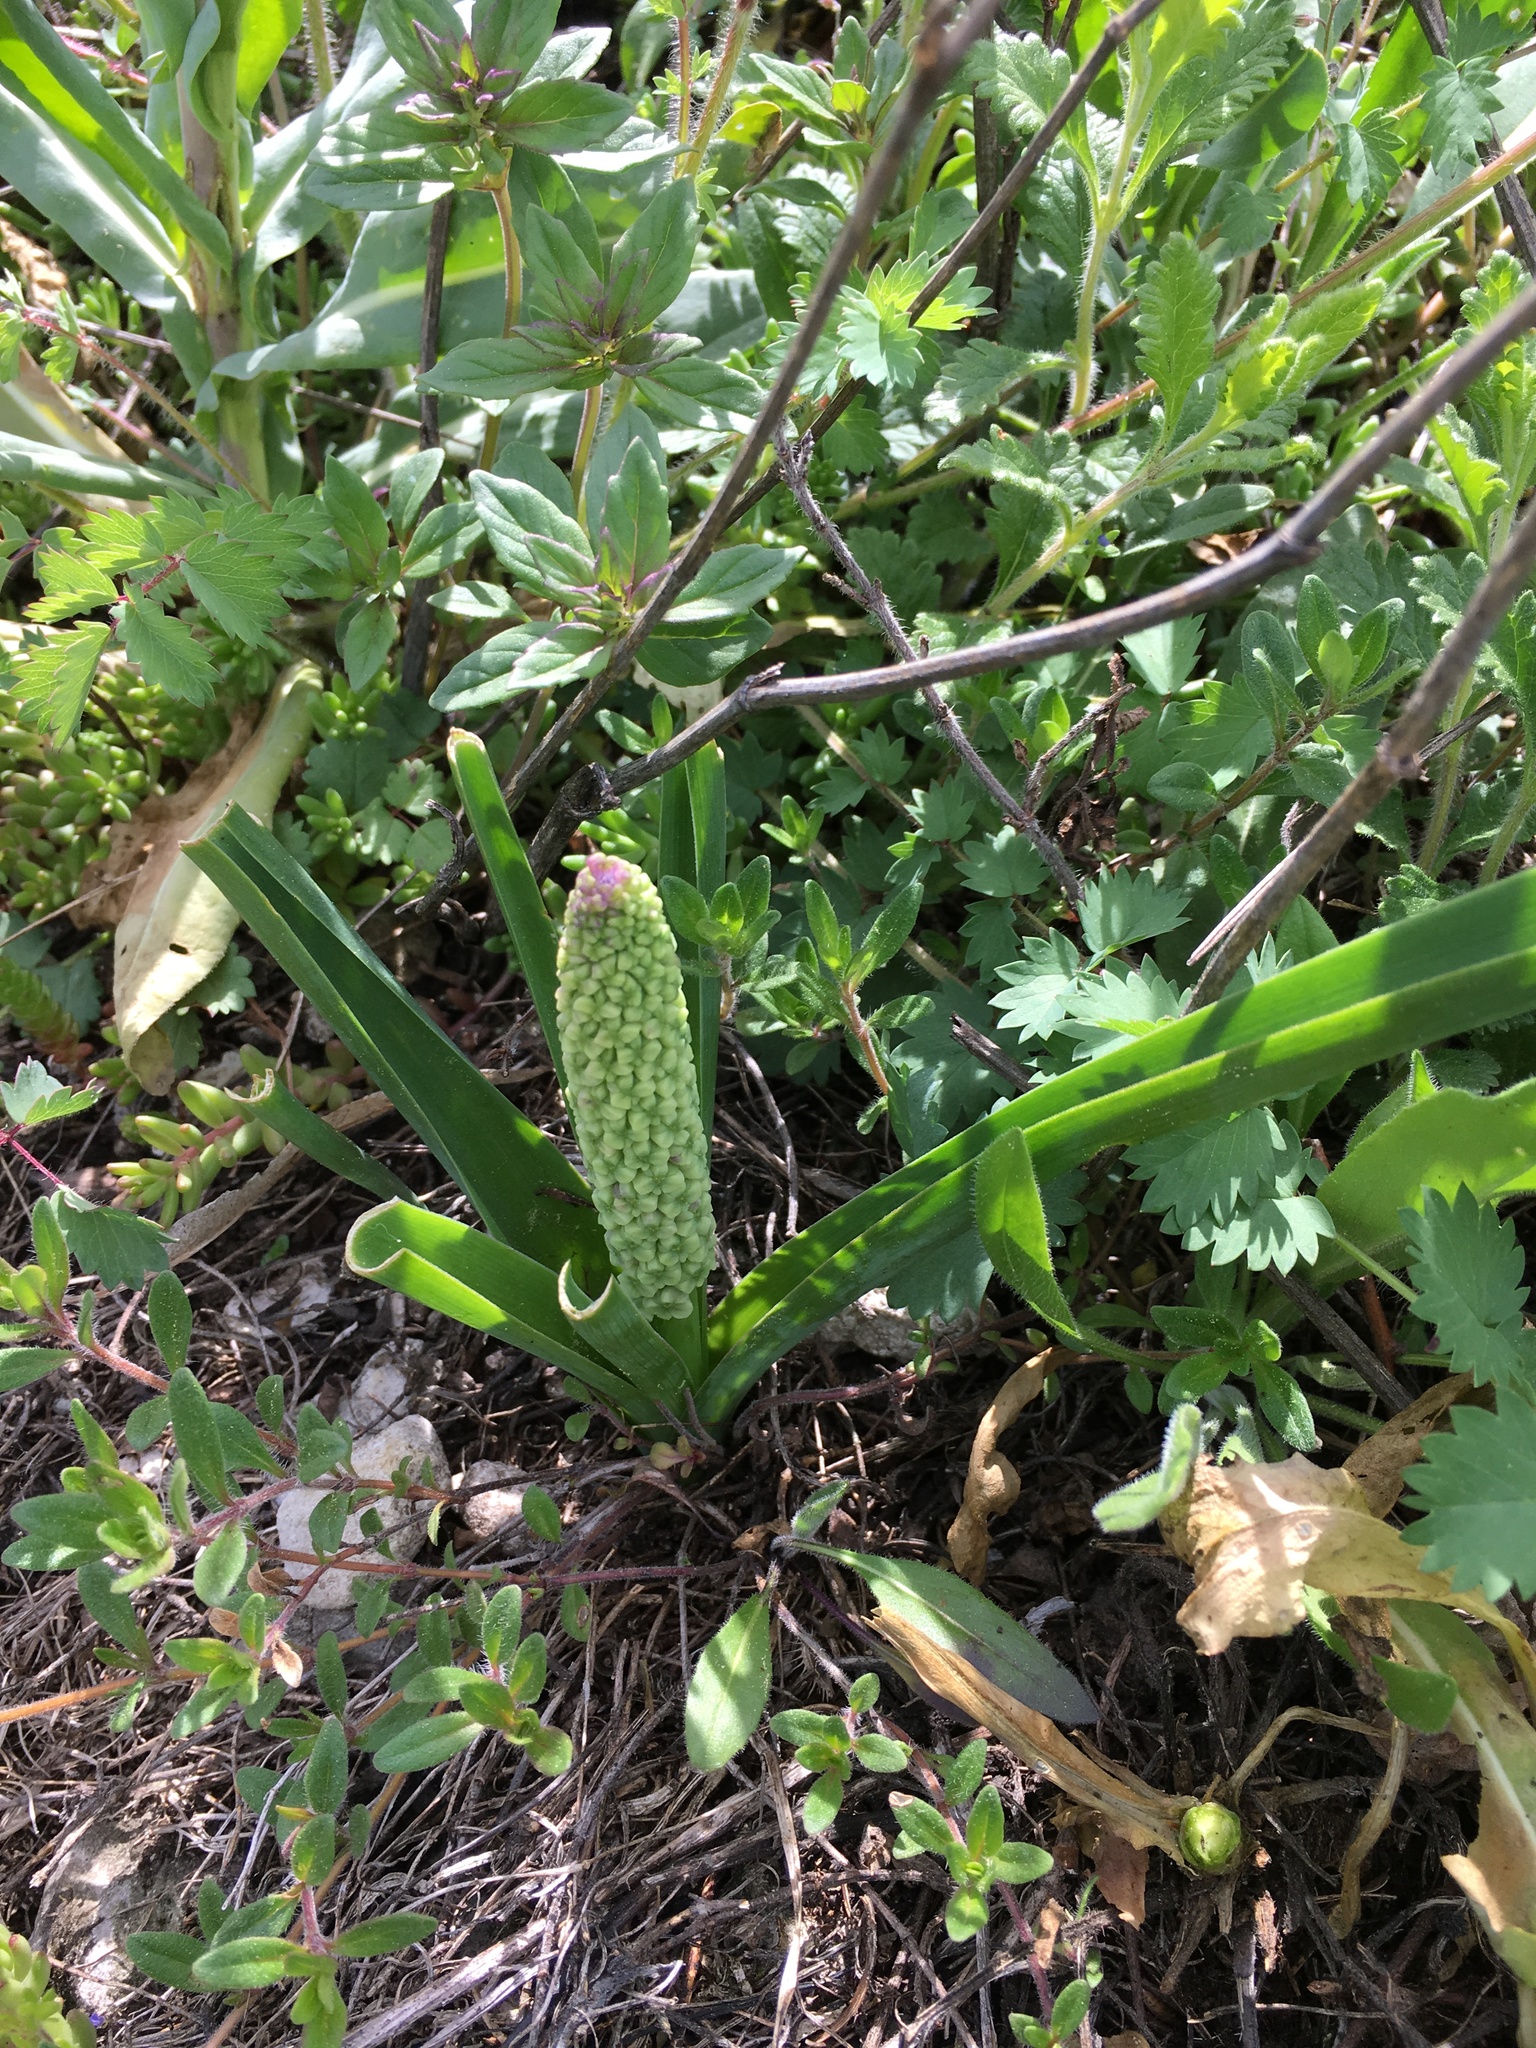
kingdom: Plantae
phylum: Tracheophyta
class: Liliopsida
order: Asparagales
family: Asparagaceae
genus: Muscari
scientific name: Muscari tenuiflorum
